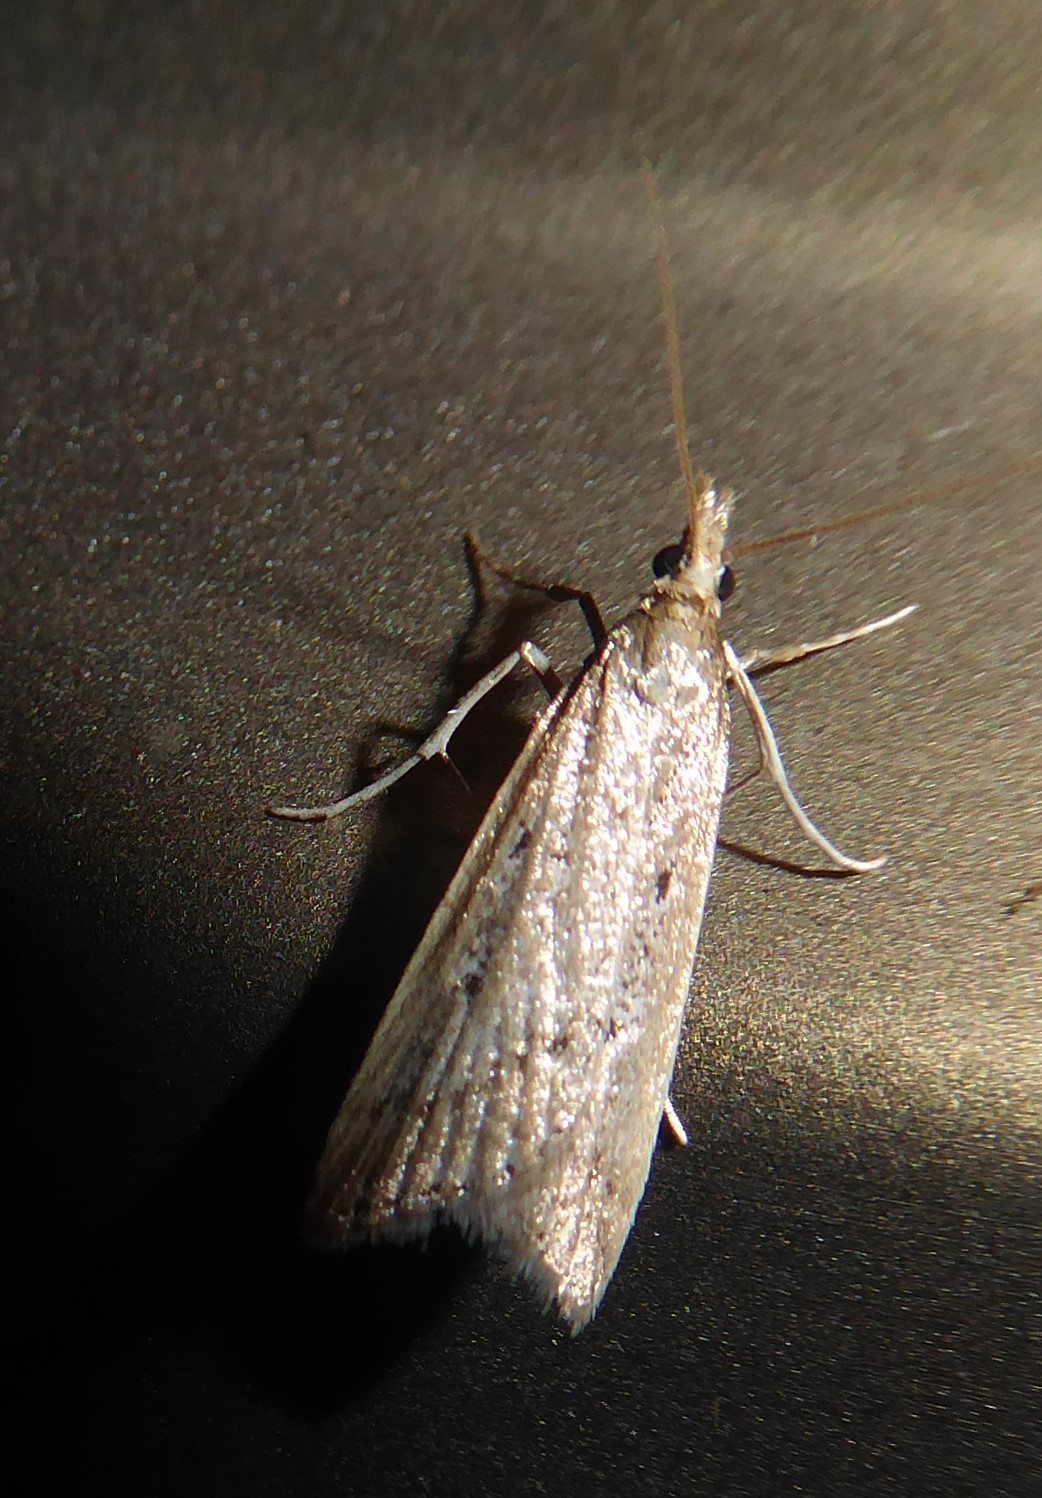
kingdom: Animalia
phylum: Arthropoda
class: Insecta
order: Lepidoptera
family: Crambidae
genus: Eudonia
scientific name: Eudonia sabulosella
